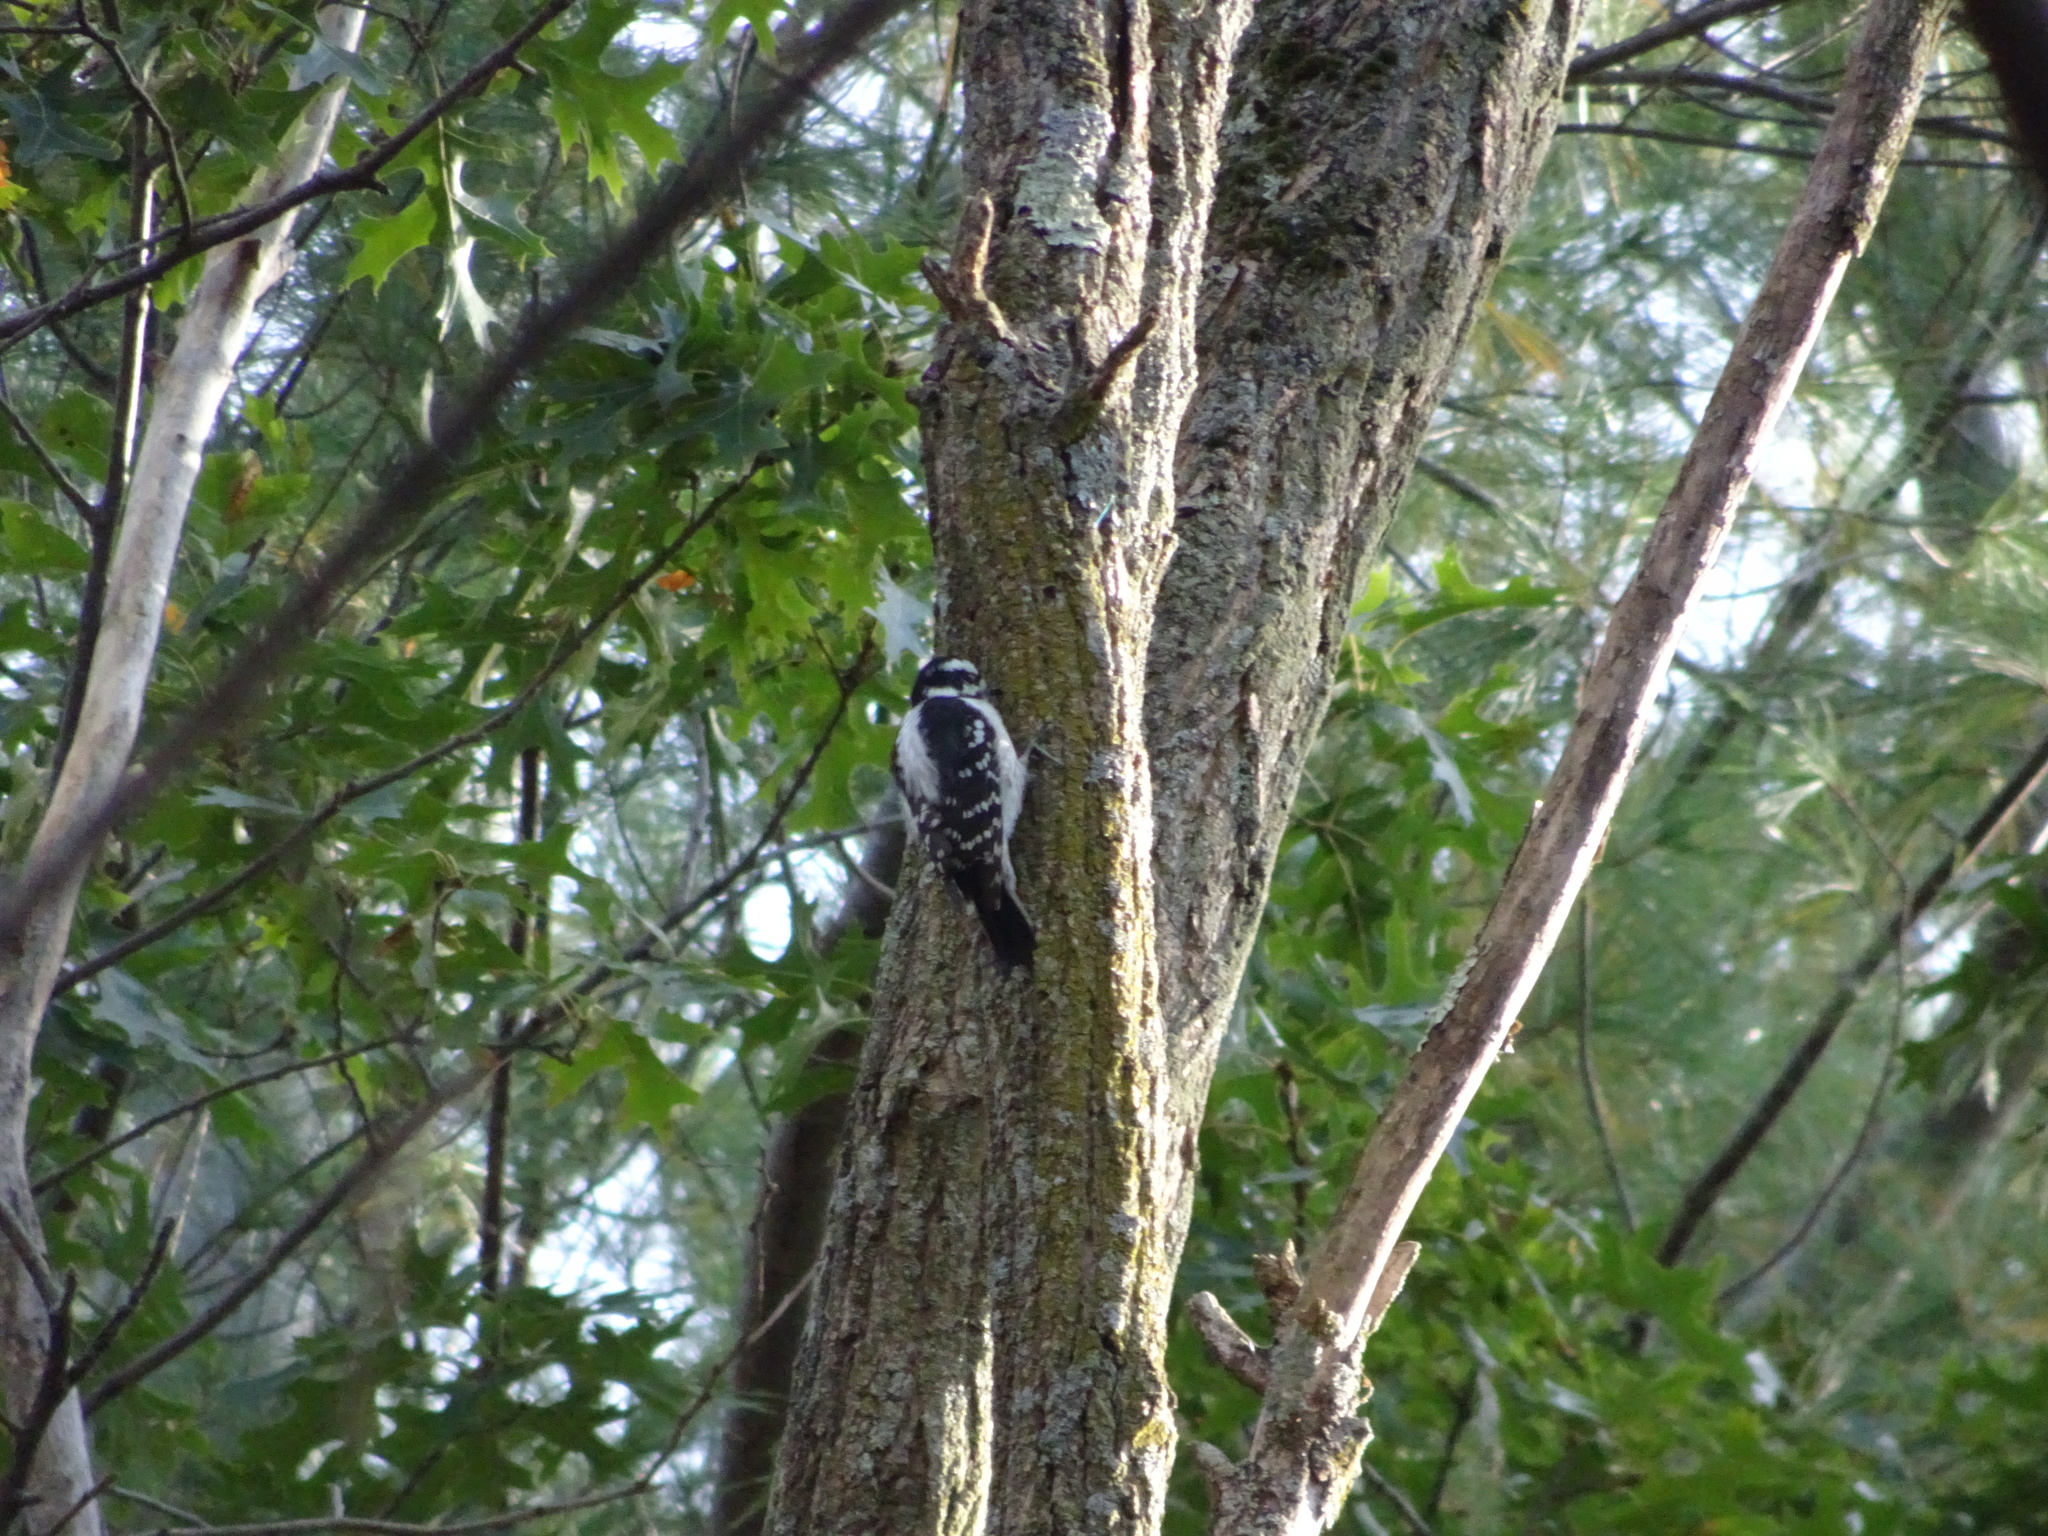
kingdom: Animalia
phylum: Chordata
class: Aves
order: Piciformes
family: Picidae
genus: Dryobates
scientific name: Dryobates pubescens
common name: Downy woodpecker
